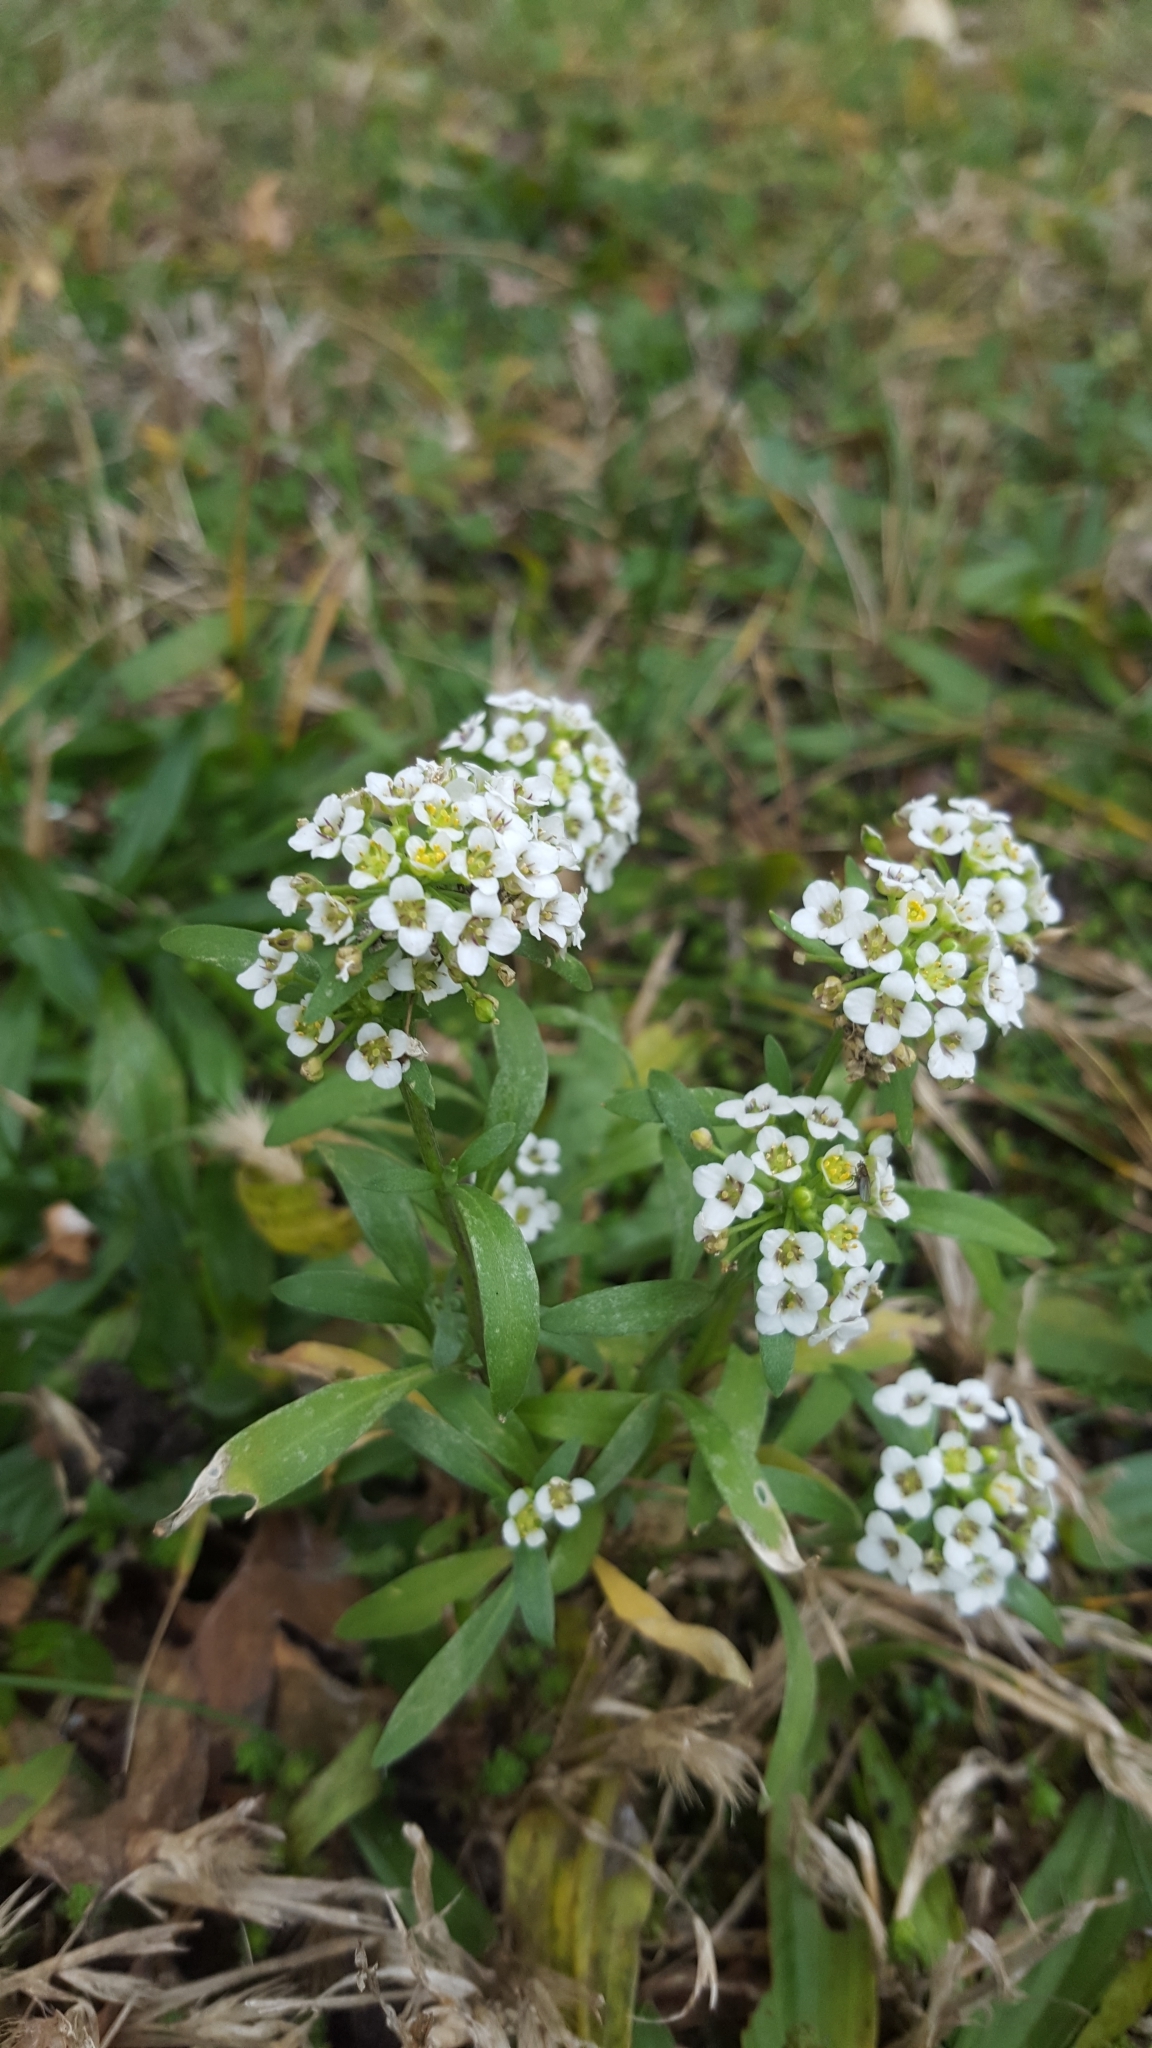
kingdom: Plantae
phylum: Tracheophyta
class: Magnoliopsida
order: Brassicales
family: Brassicaceae
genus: Lobularia
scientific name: Lobularia maritima
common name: Sweet alison
